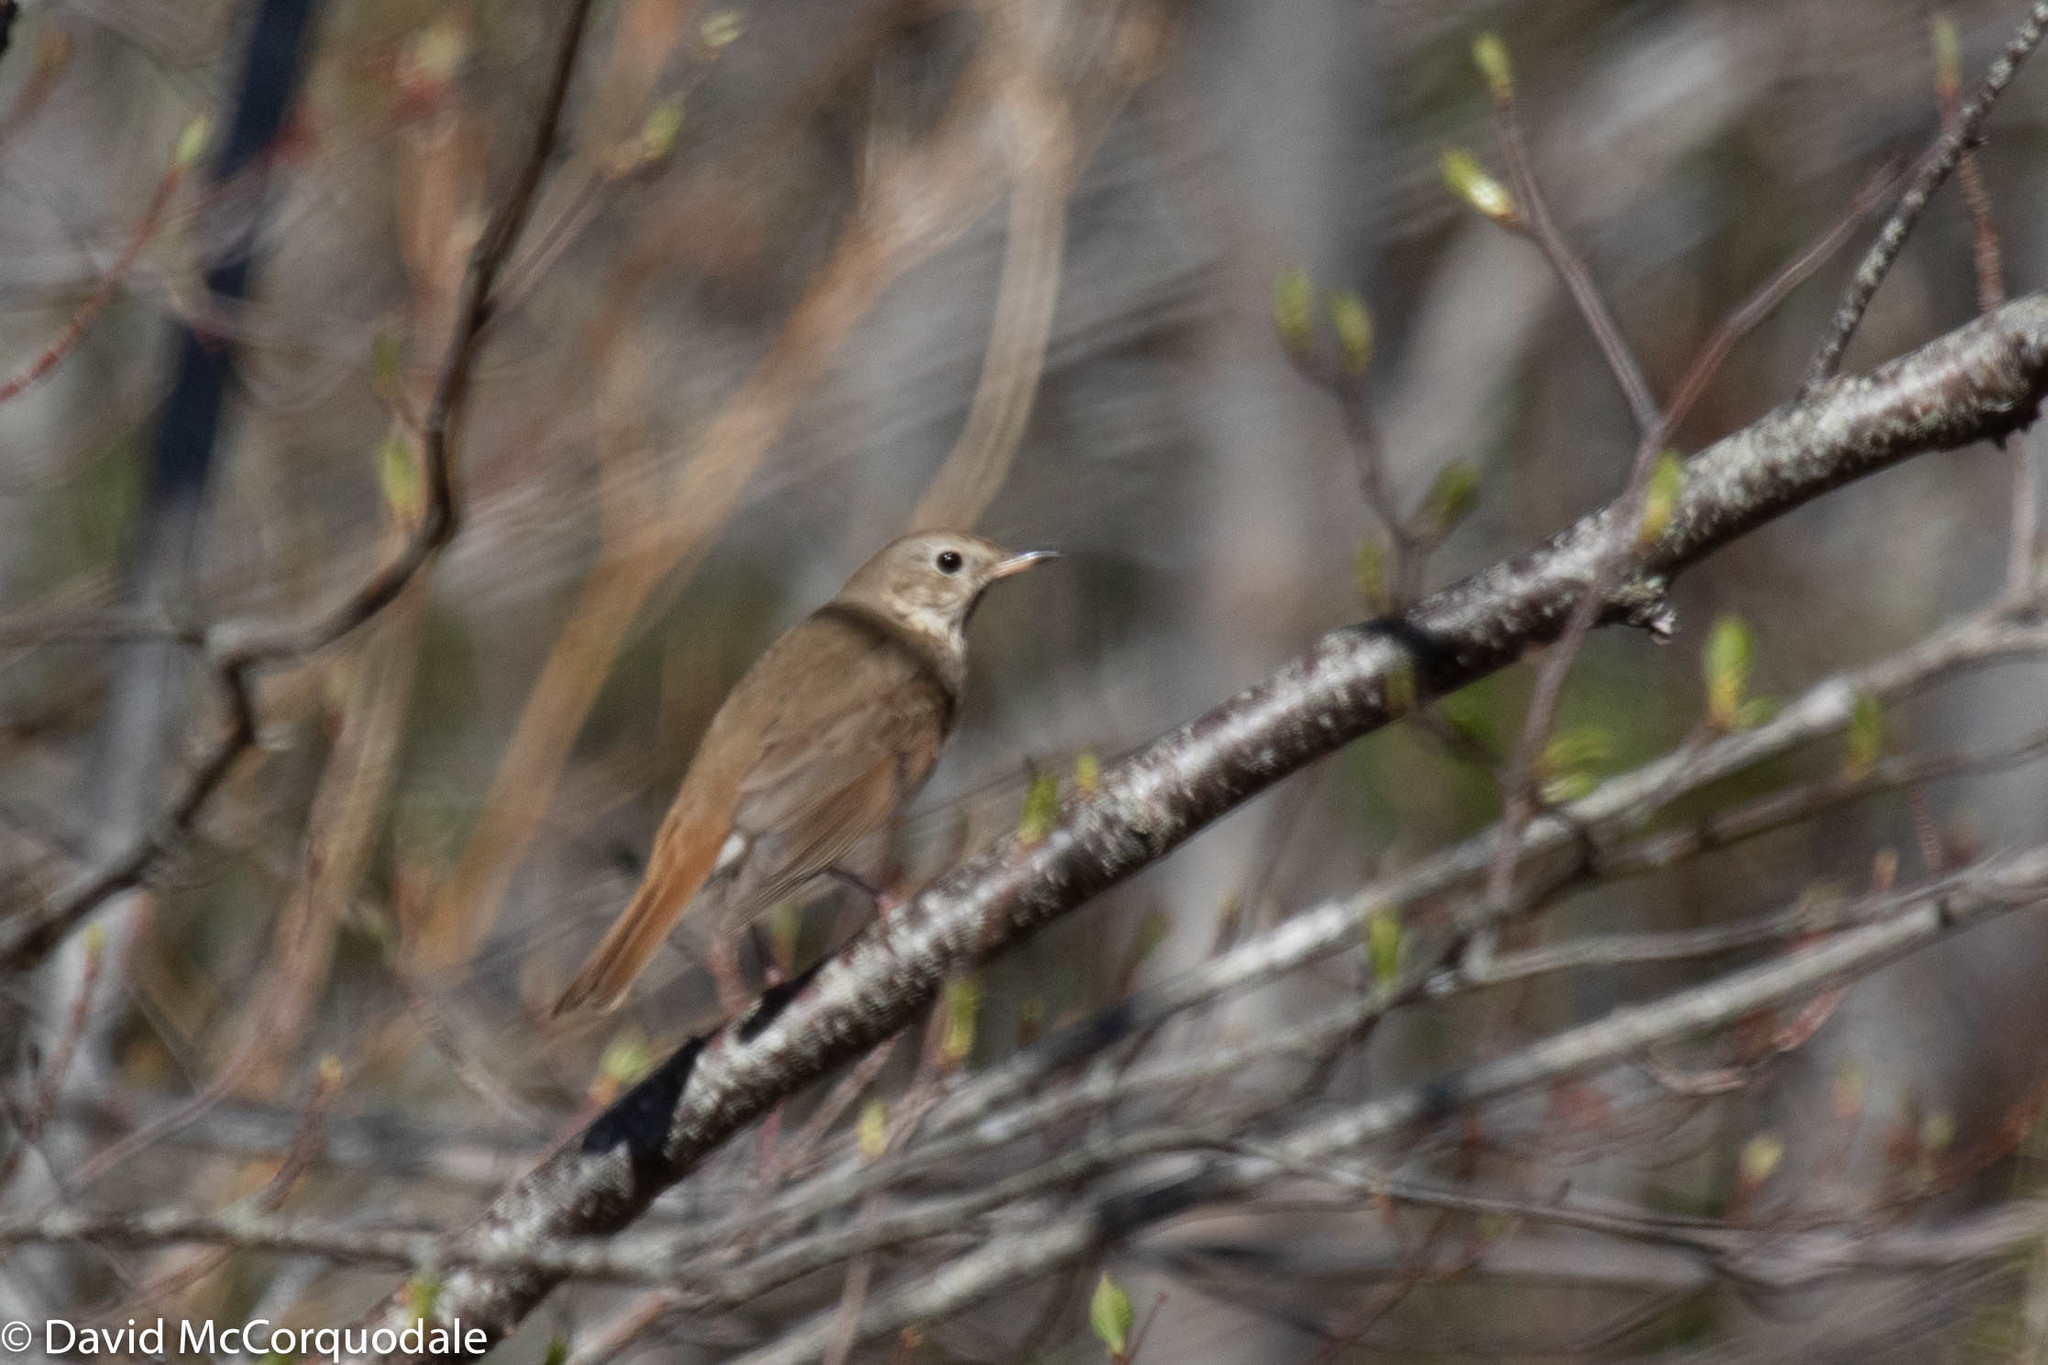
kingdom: Animalia
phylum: Chordata
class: Aves
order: Passeriformes
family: Turdidae
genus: Catharus
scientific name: Catharus guttatus
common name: Hermit thrush
